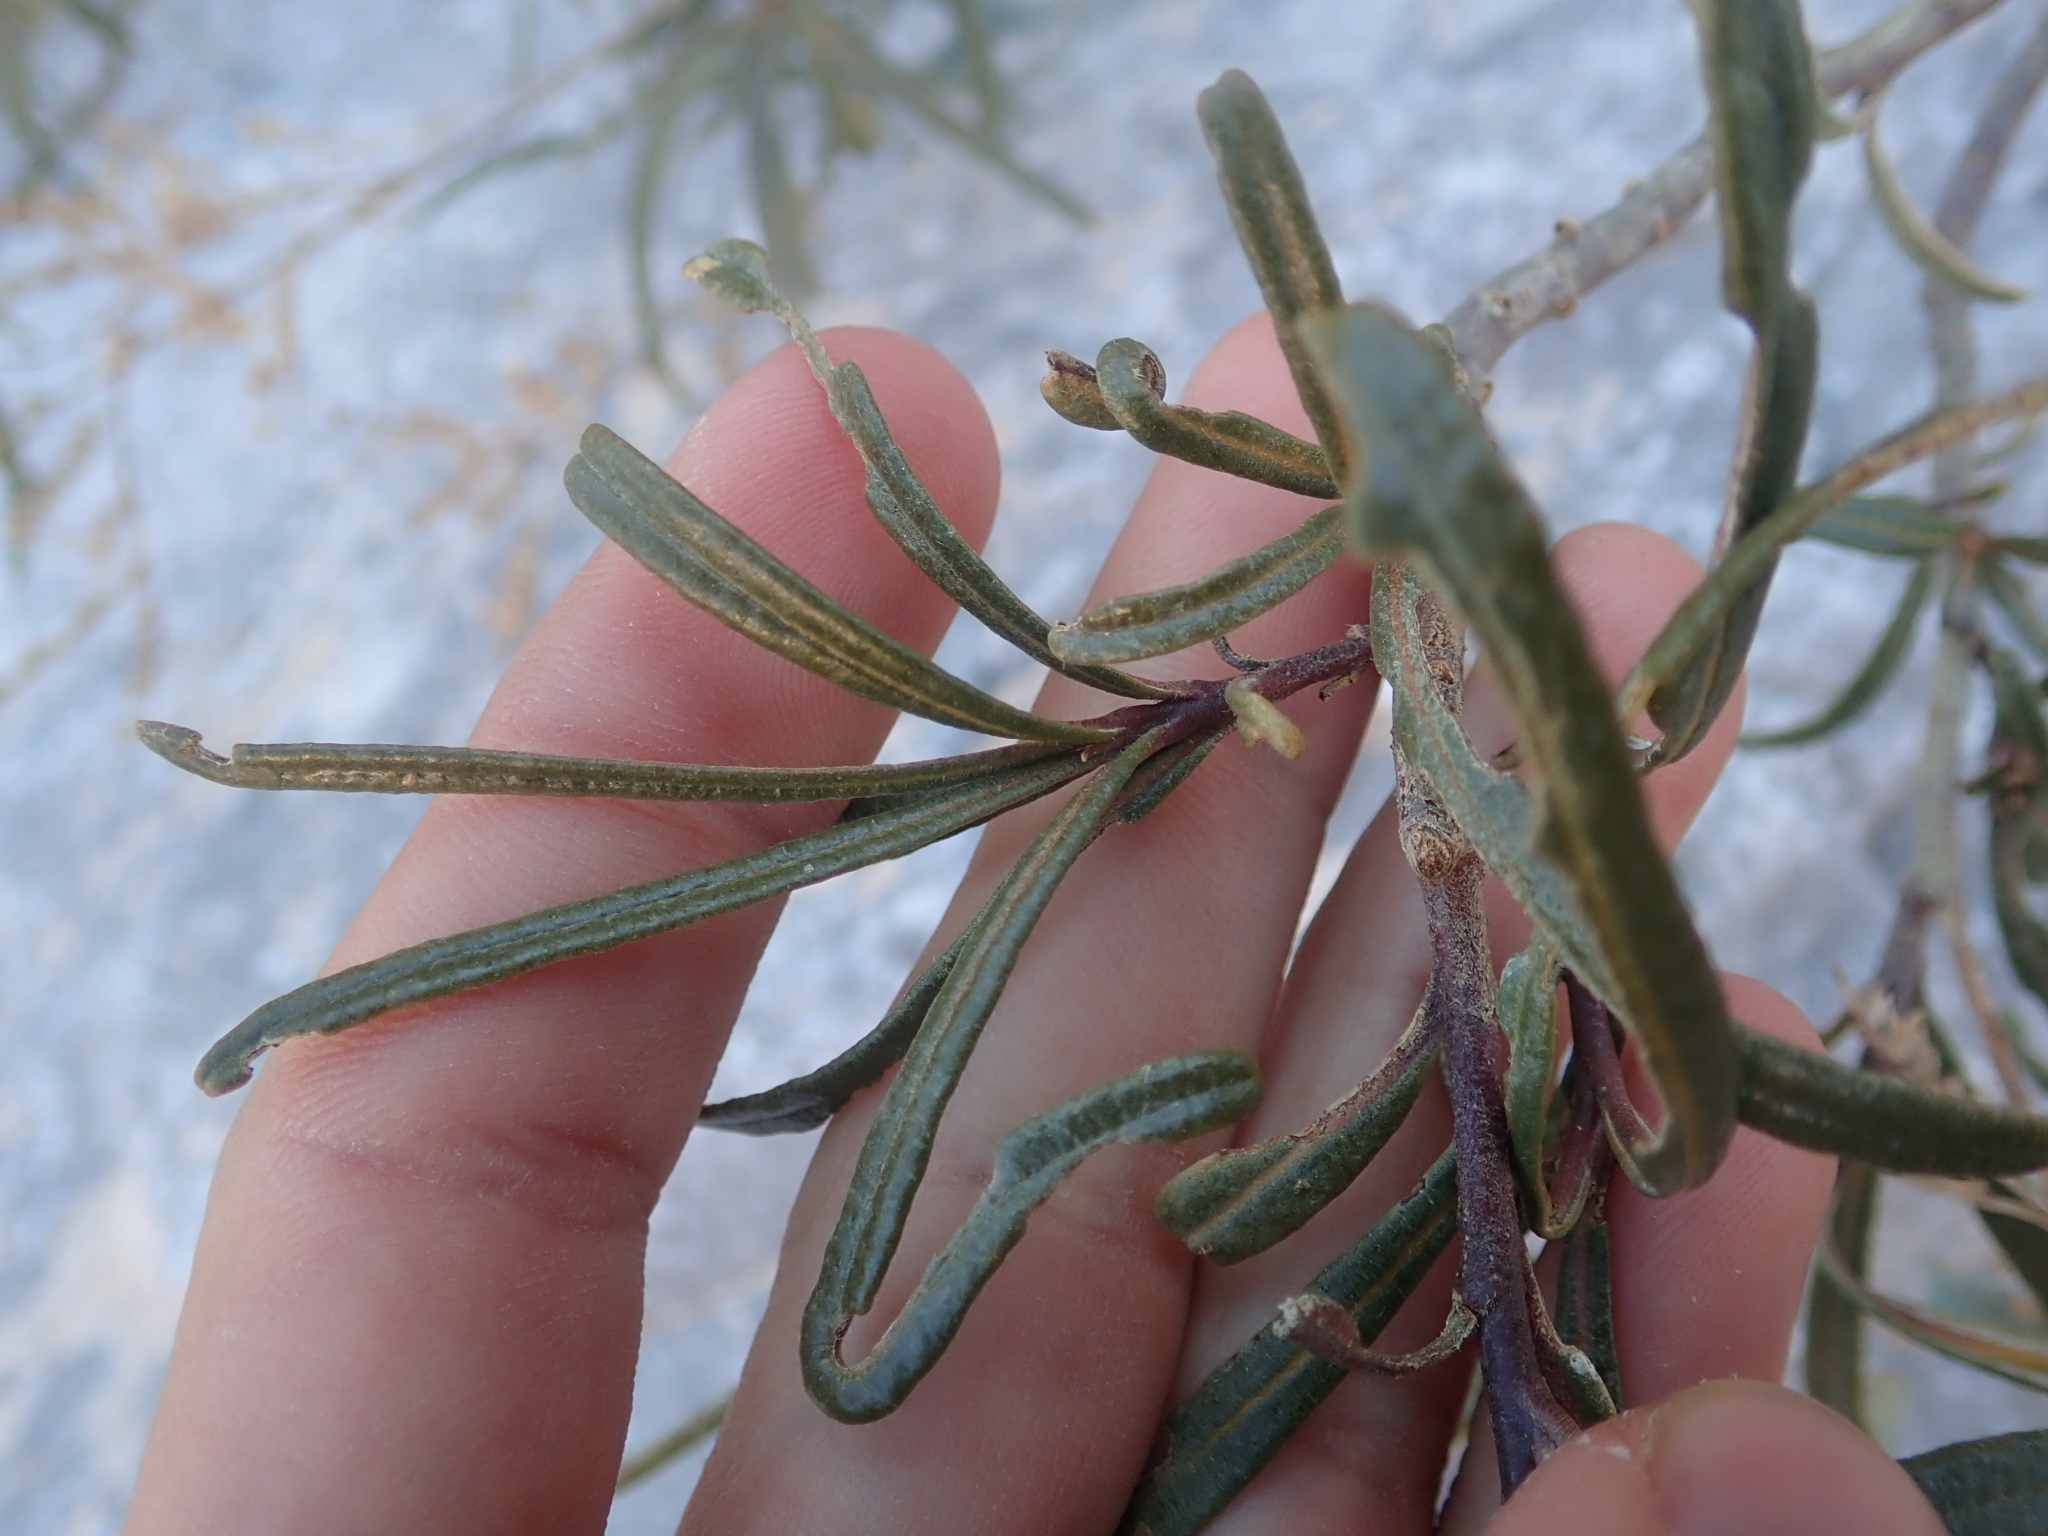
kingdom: Plantae
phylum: Tracheophyta
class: Magnoliopsida
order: Boraginales
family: Namaceae
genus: Eriodictyon
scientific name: Eriodictyon angustifolium
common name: Narrow-leaf yerba santa
